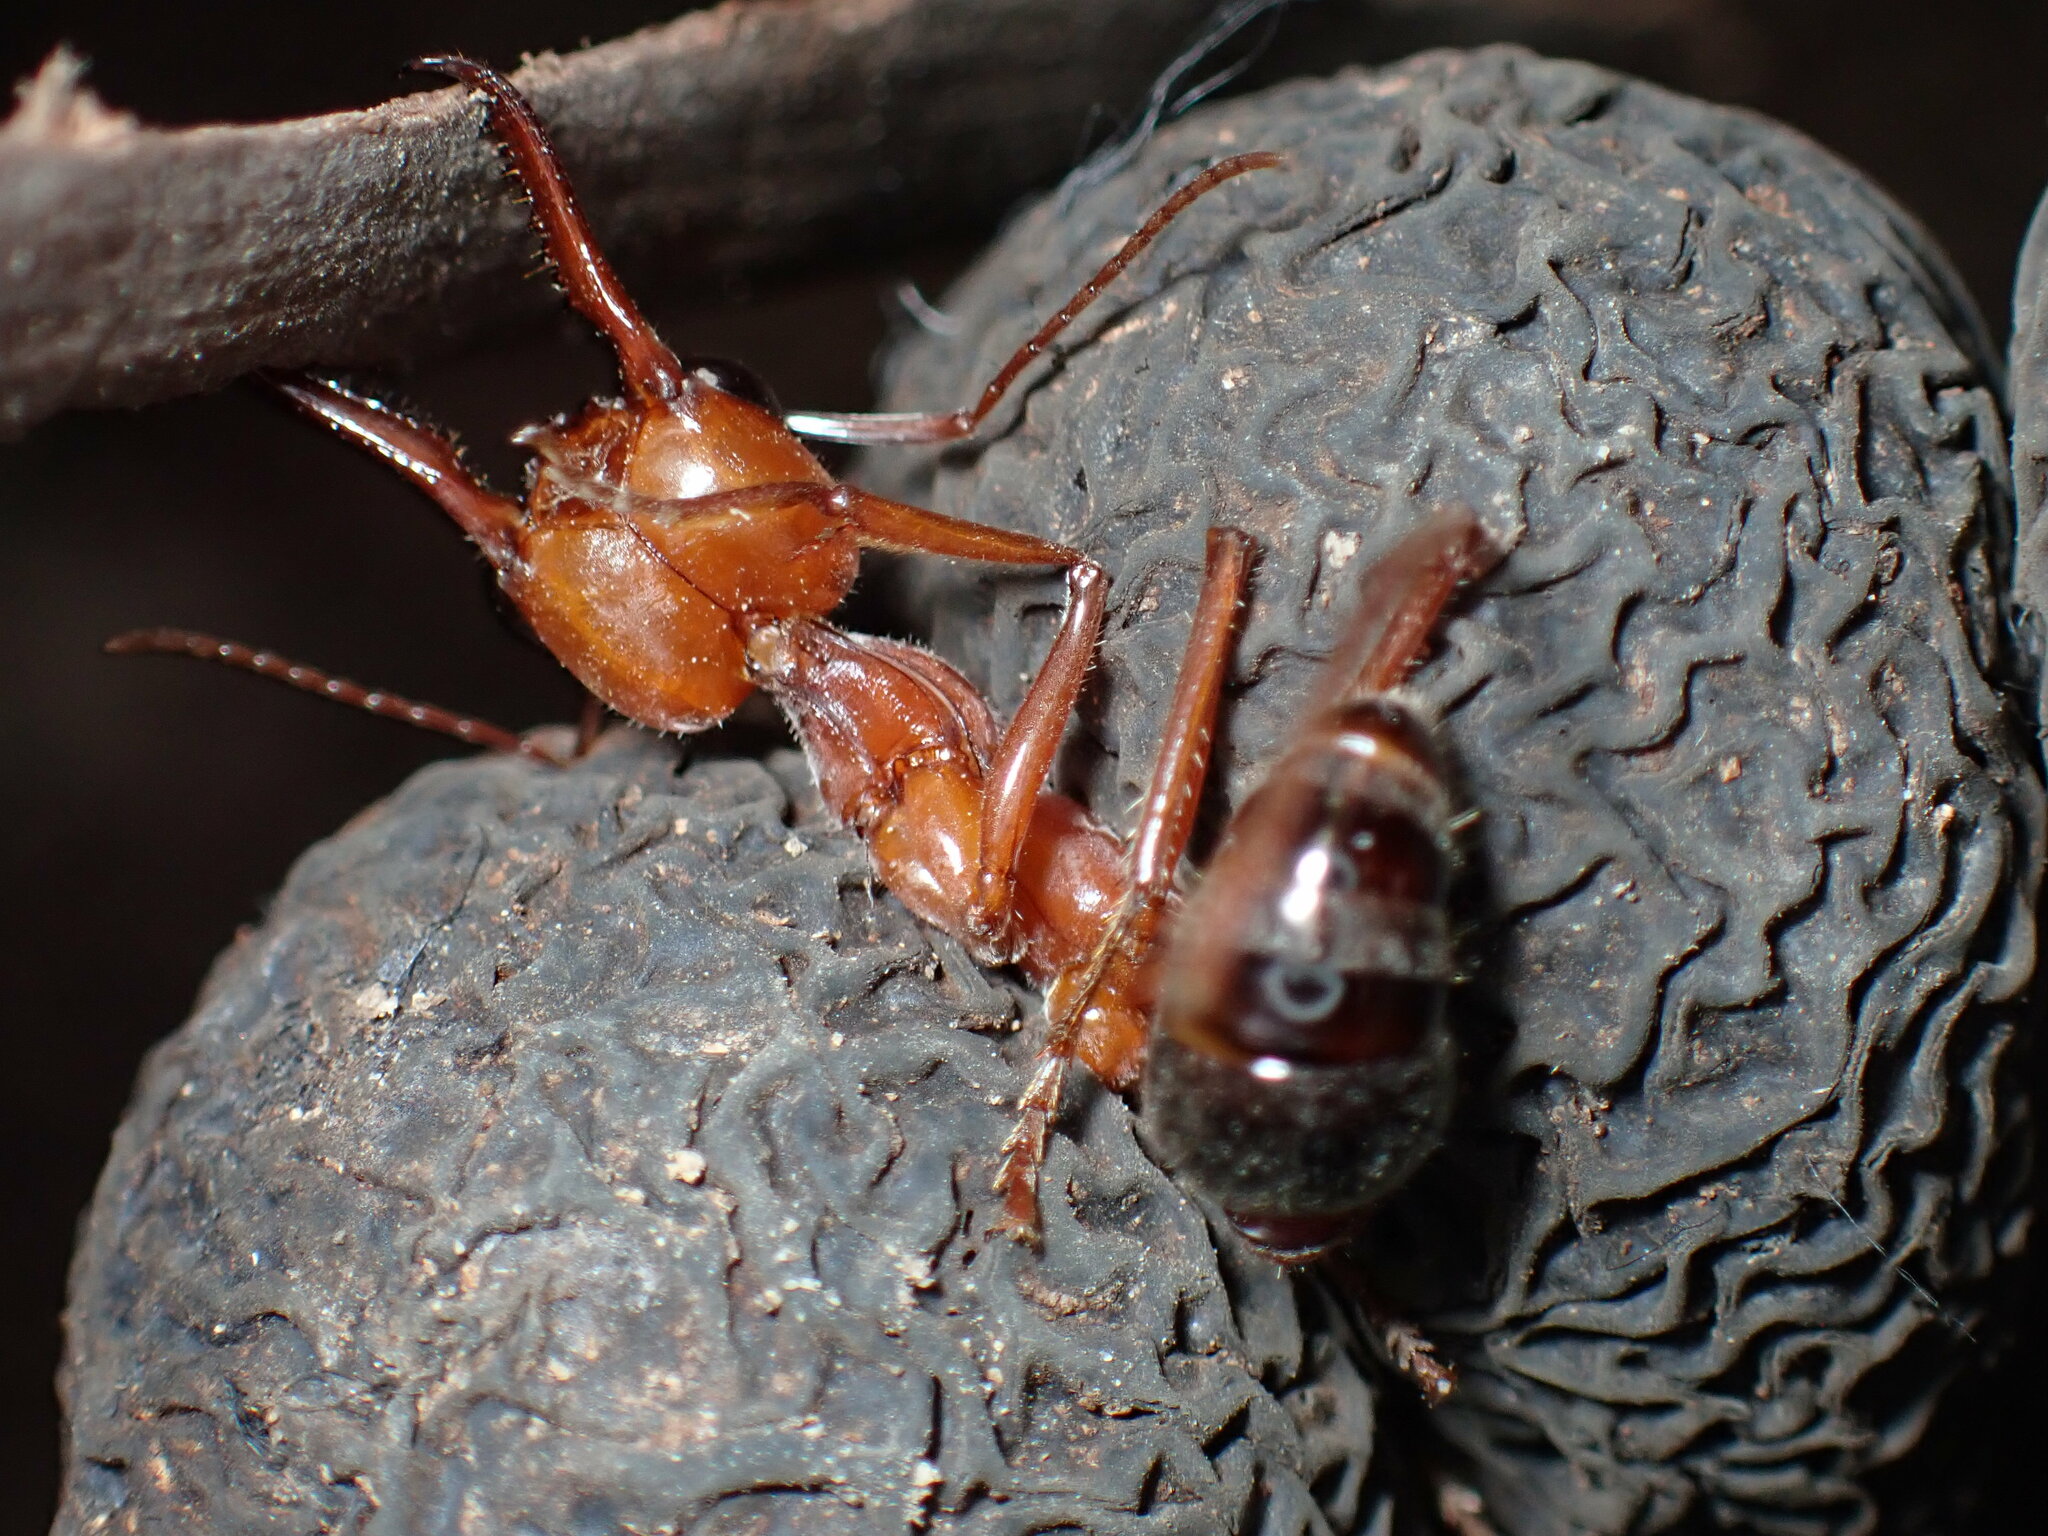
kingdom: Animalia
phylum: Arthropoda
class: Insecta
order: Hymenoptera
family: Formicidae
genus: Myrmecia
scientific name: Myrmecia brevinoda
